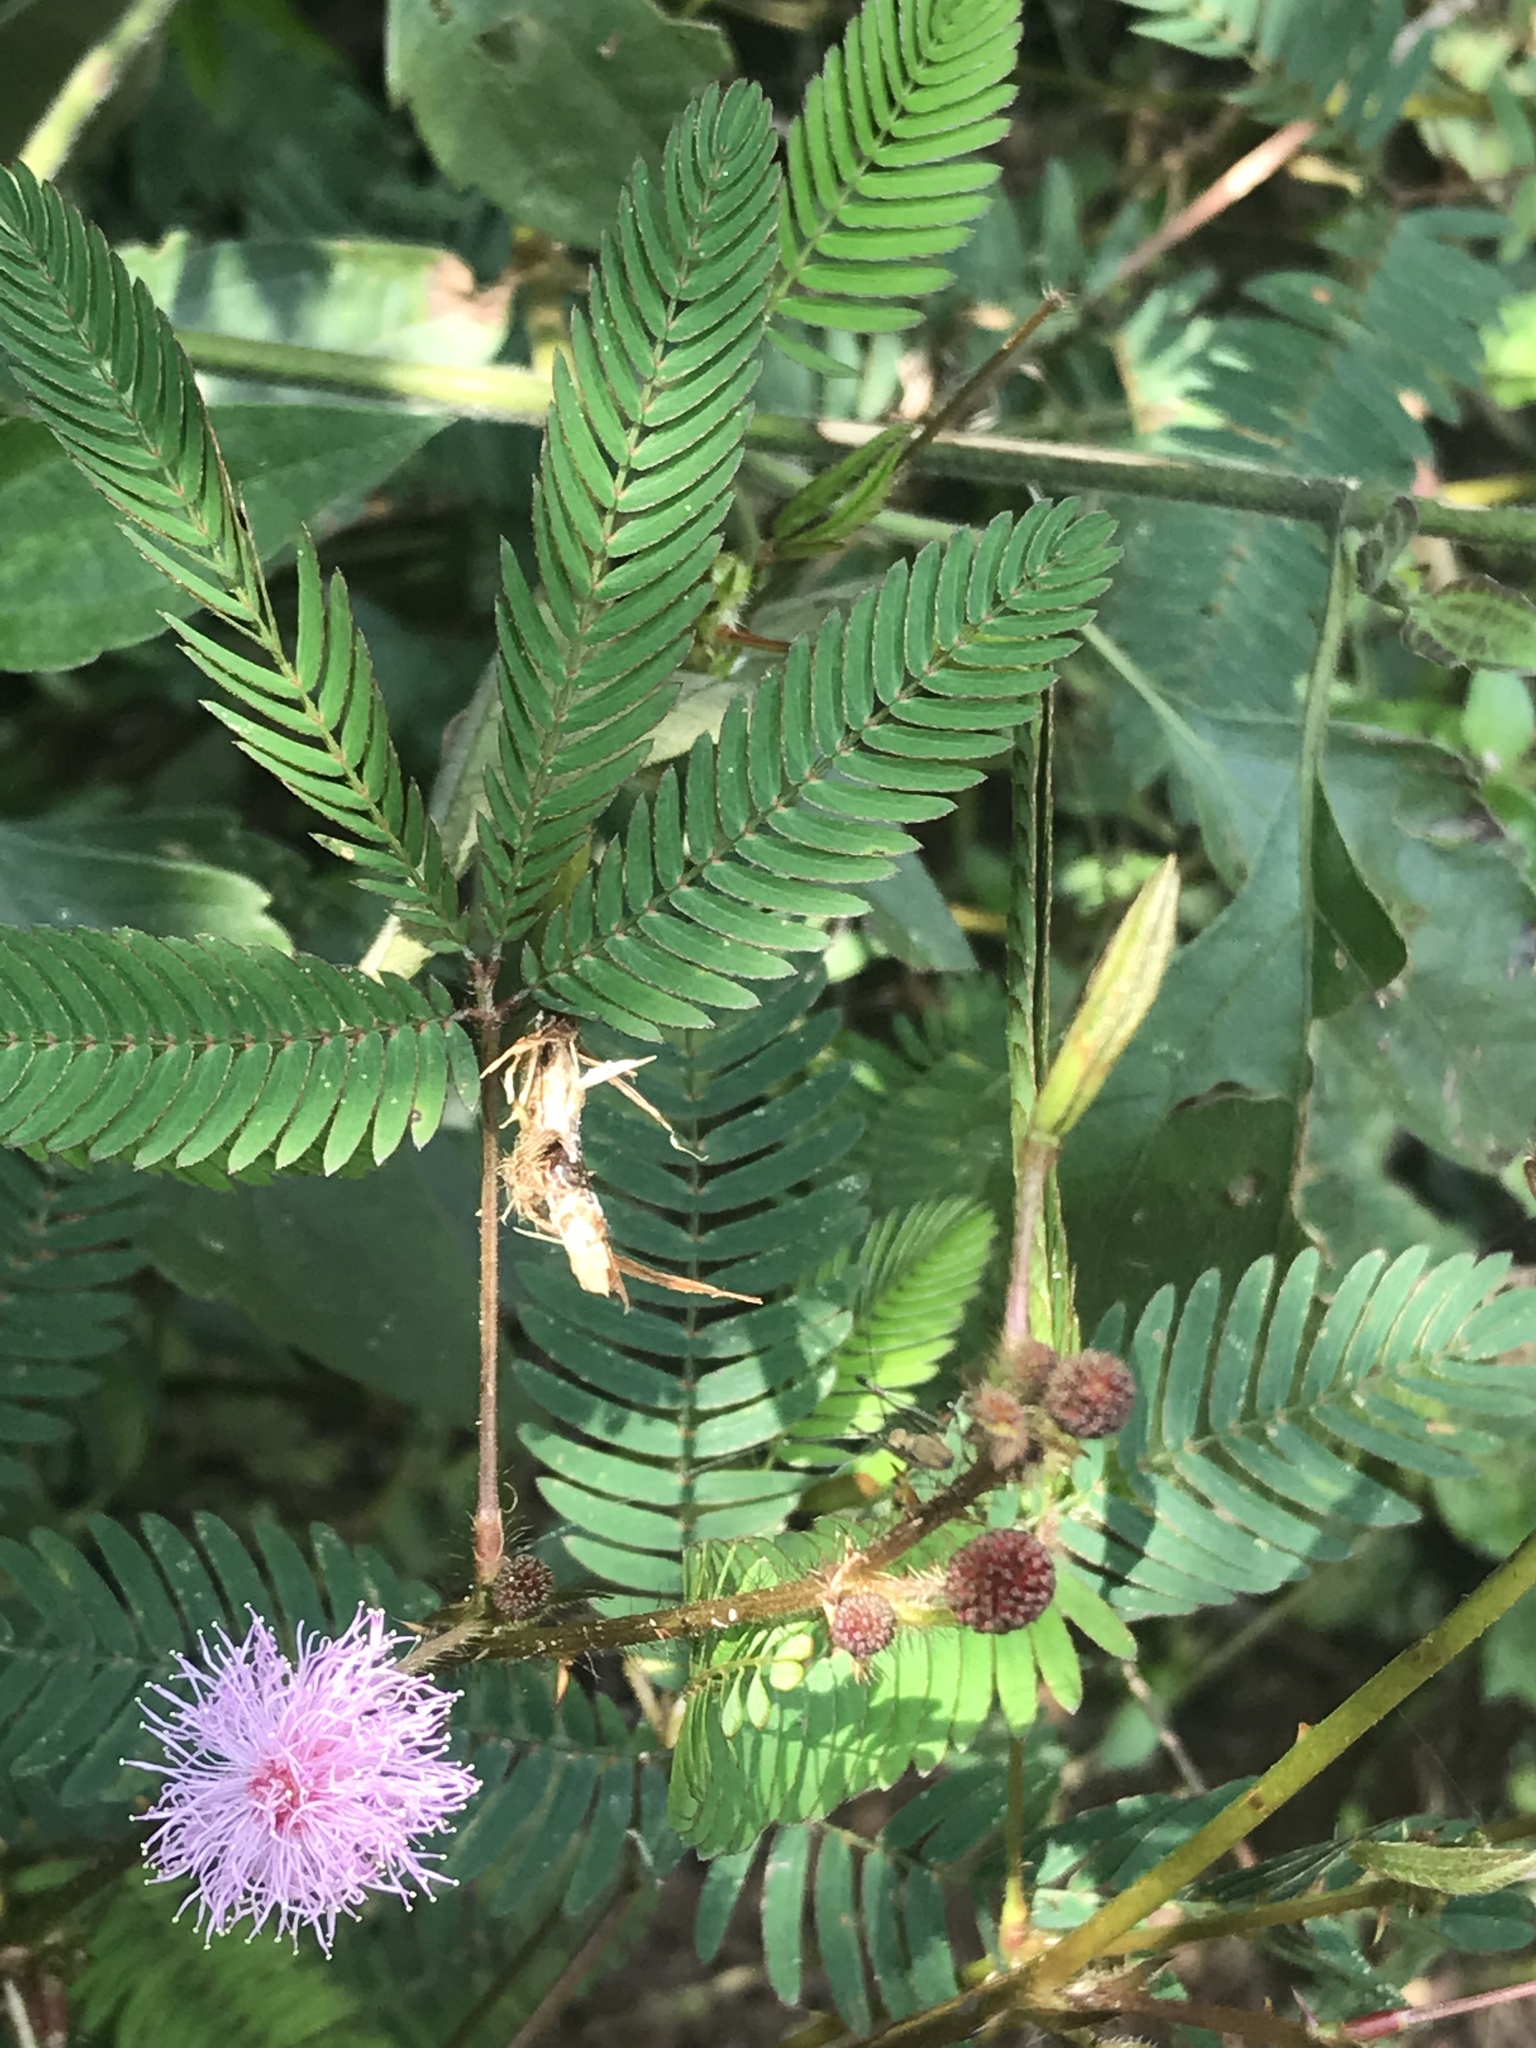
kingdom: Plantae
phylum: Tracheophyta
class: Magnoliopsida
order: Fabales
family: Fabaceae
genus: Mimosa
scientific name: Mimosa pudica
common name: Sensitive plant
